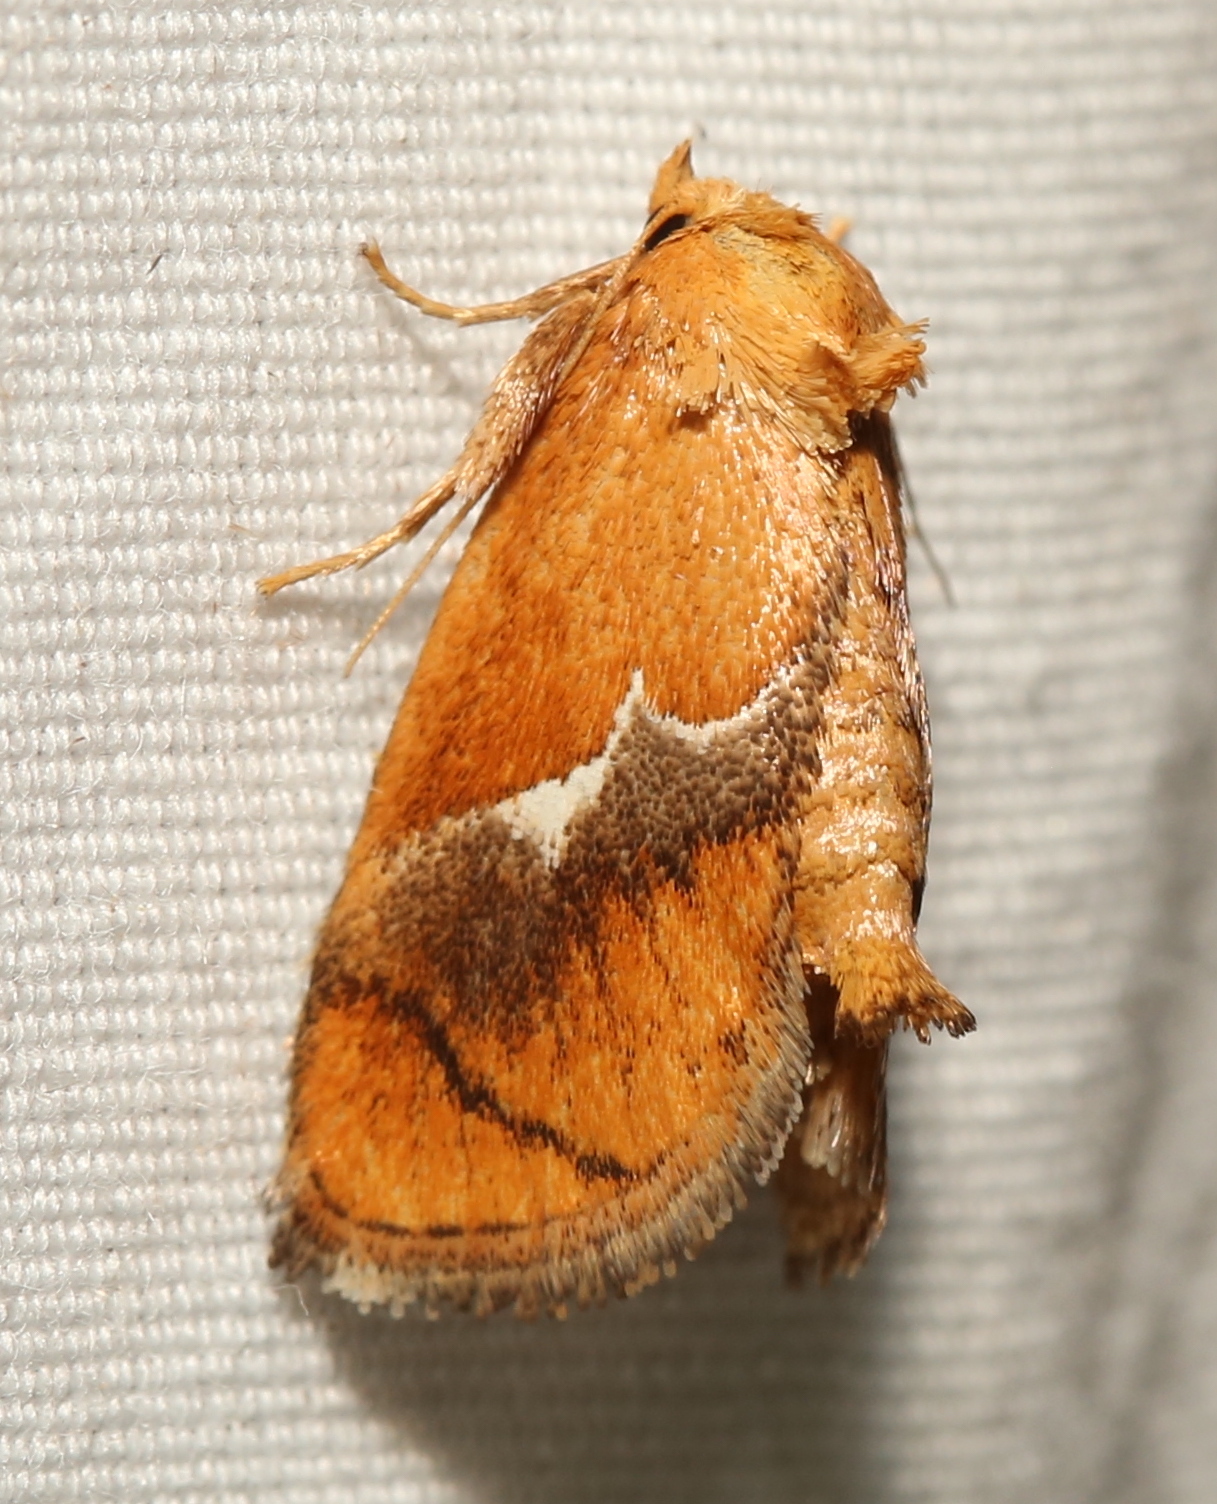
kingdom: Animalia
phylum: Arthropoda
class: Insecta
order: Lepidoptera
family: Limacodidae
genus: Lithacodes
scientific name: Lithacodes fasciola
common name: Yellow-shouldered slug moth
